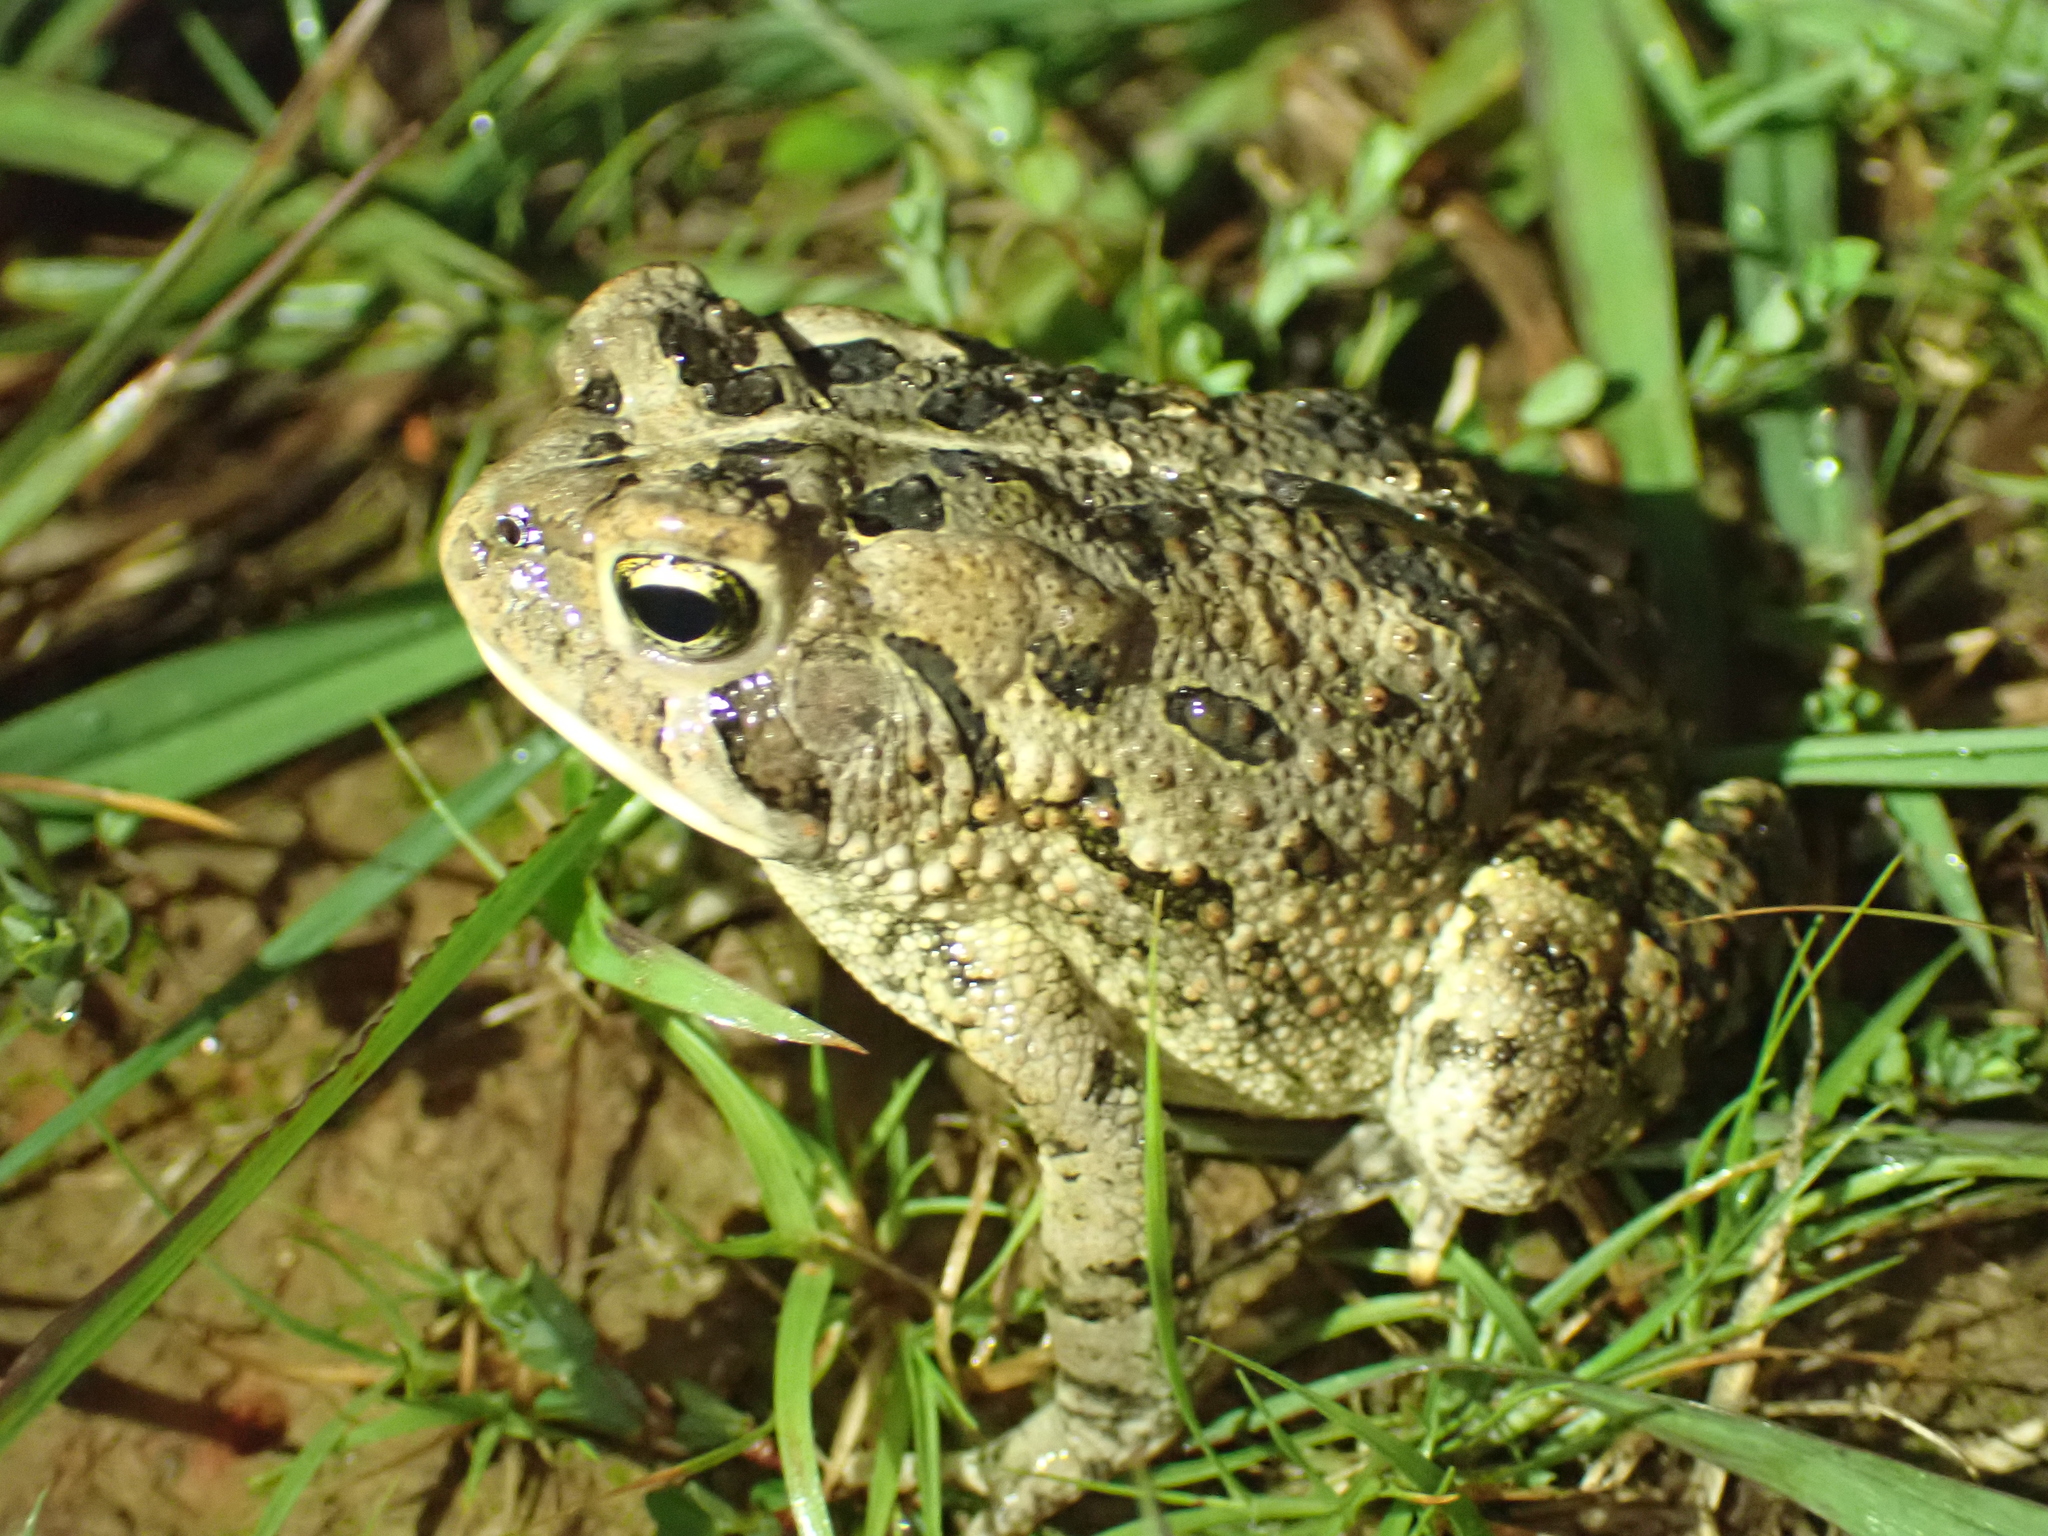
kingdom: Animalia
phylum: Chordata
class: Amphibia
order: Anura
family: Bufonidae
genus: Anaxyrus
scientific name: Anaxyrus fowleri
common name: Fowler's toad
